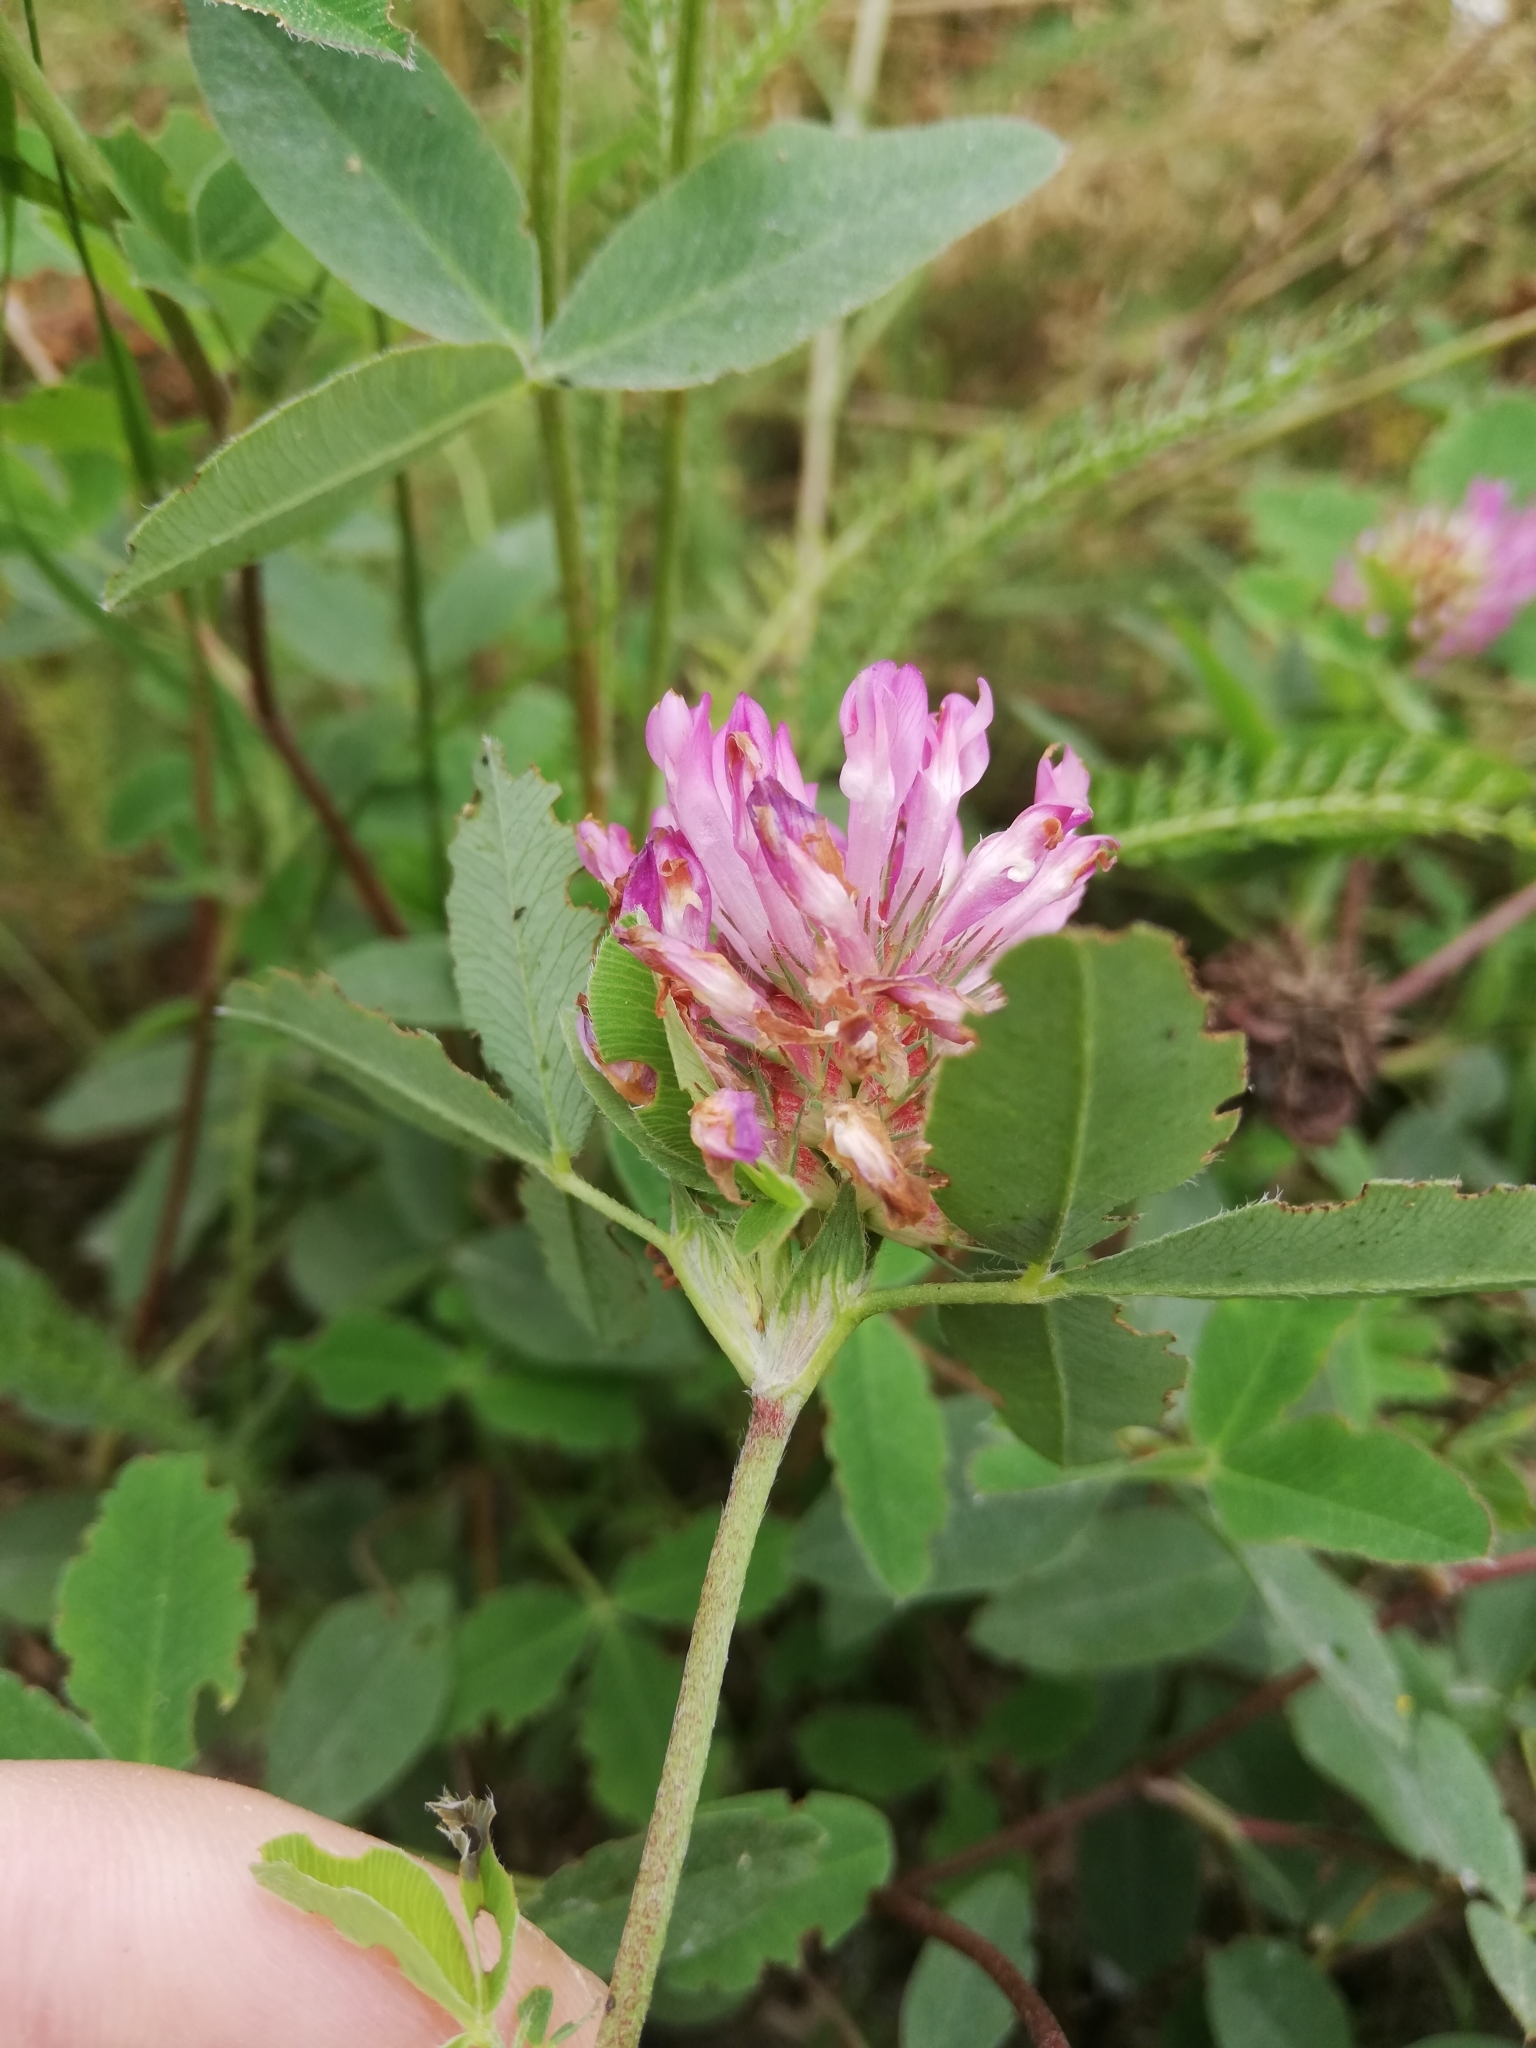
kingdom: Plantae
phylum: Tracheophyta
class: Magnoliopsida
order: Fabales
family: Fabaceae
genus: Trifolium
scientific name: Trifolium medium
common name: Zigzag clover
